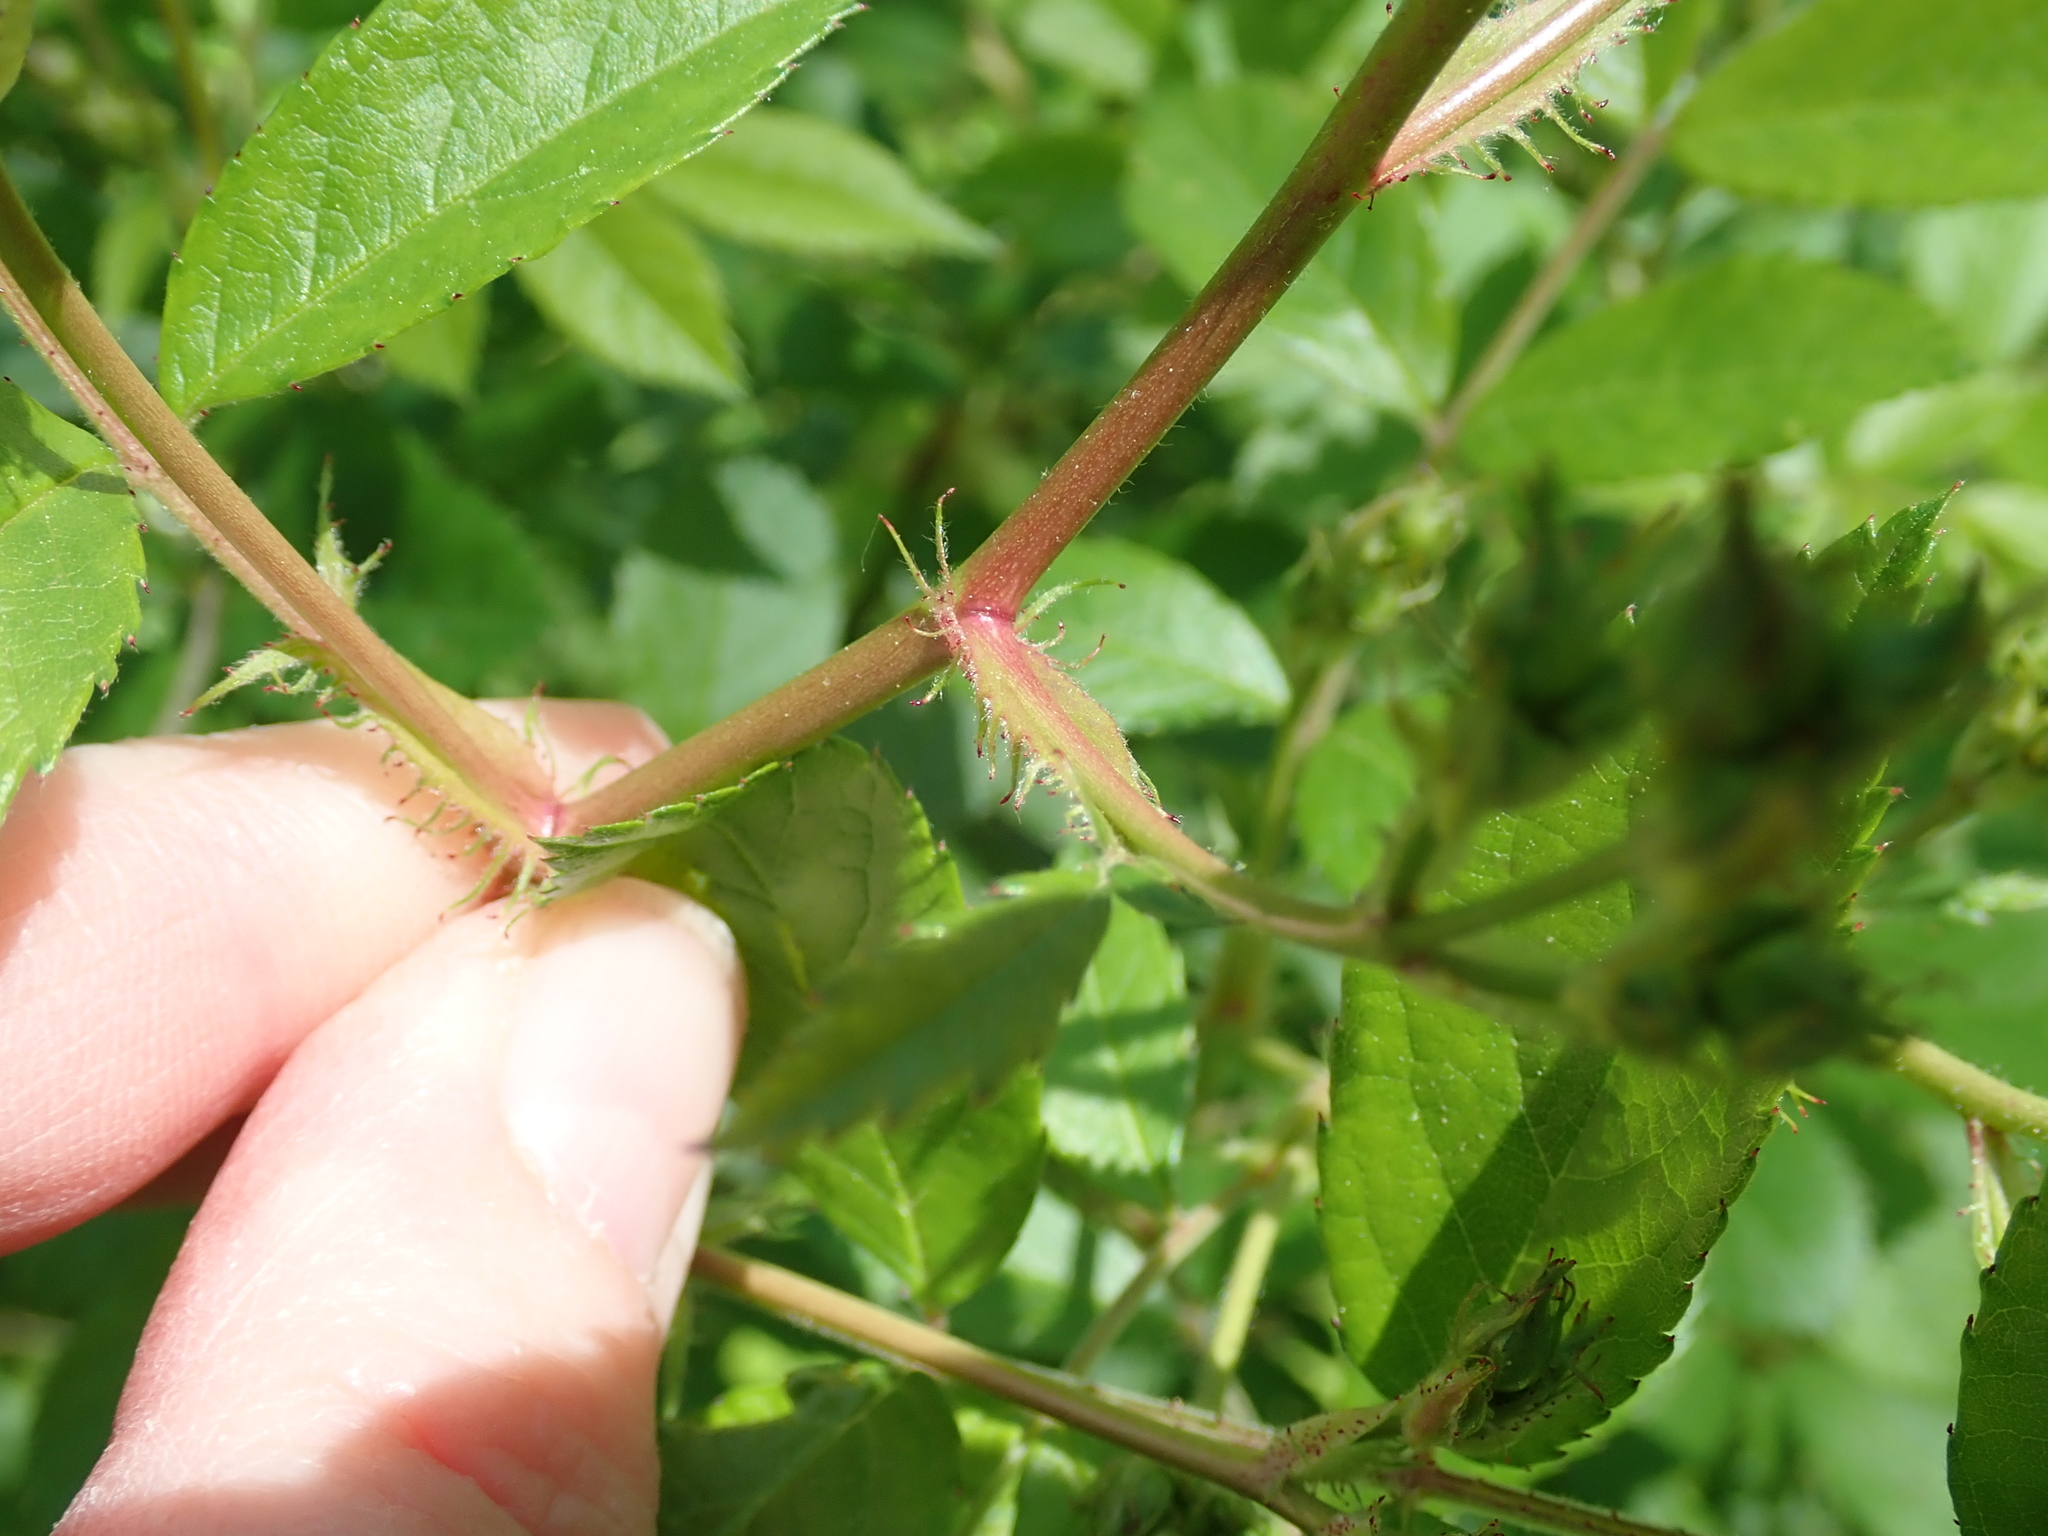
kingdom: Plantae
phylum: Tracheophyta
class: Magnoliopsida
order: Rosales
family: Rosaceae
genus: Rosa
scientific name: Rosa multiflora
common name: Multiflora rose
